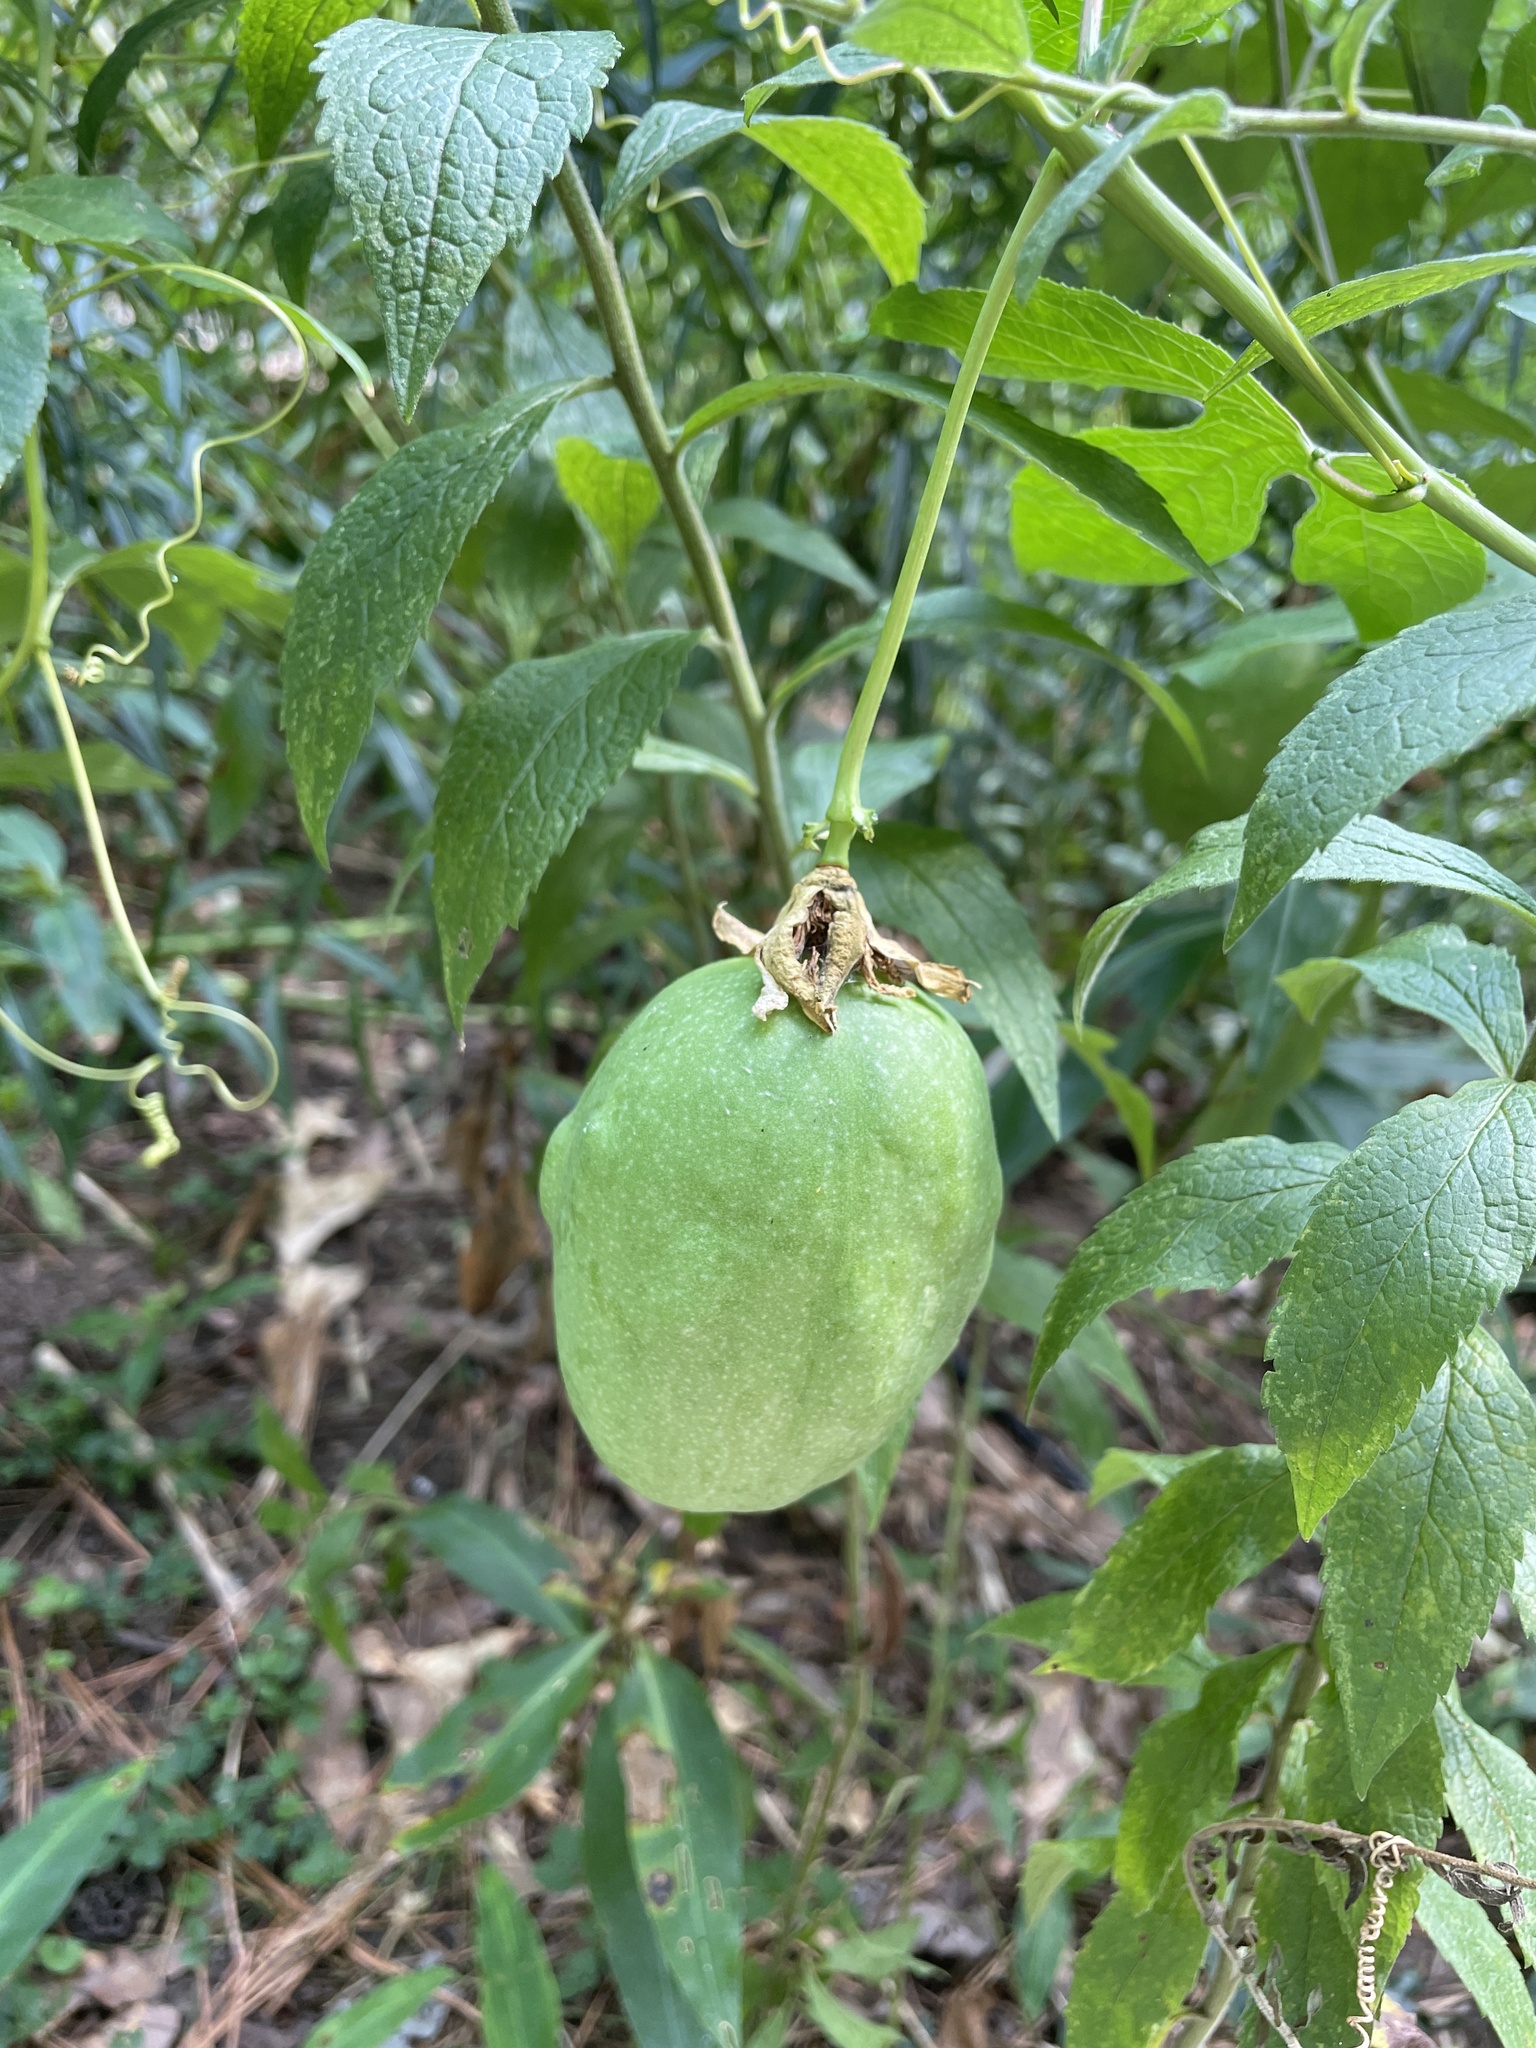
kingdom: Plantae
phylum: Tracheophyta
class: Magnoliopsida
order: Malpighiales
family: Passifloraceae
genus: Passiflora
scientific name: Passiflora incarnata
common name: Apricot-vine
